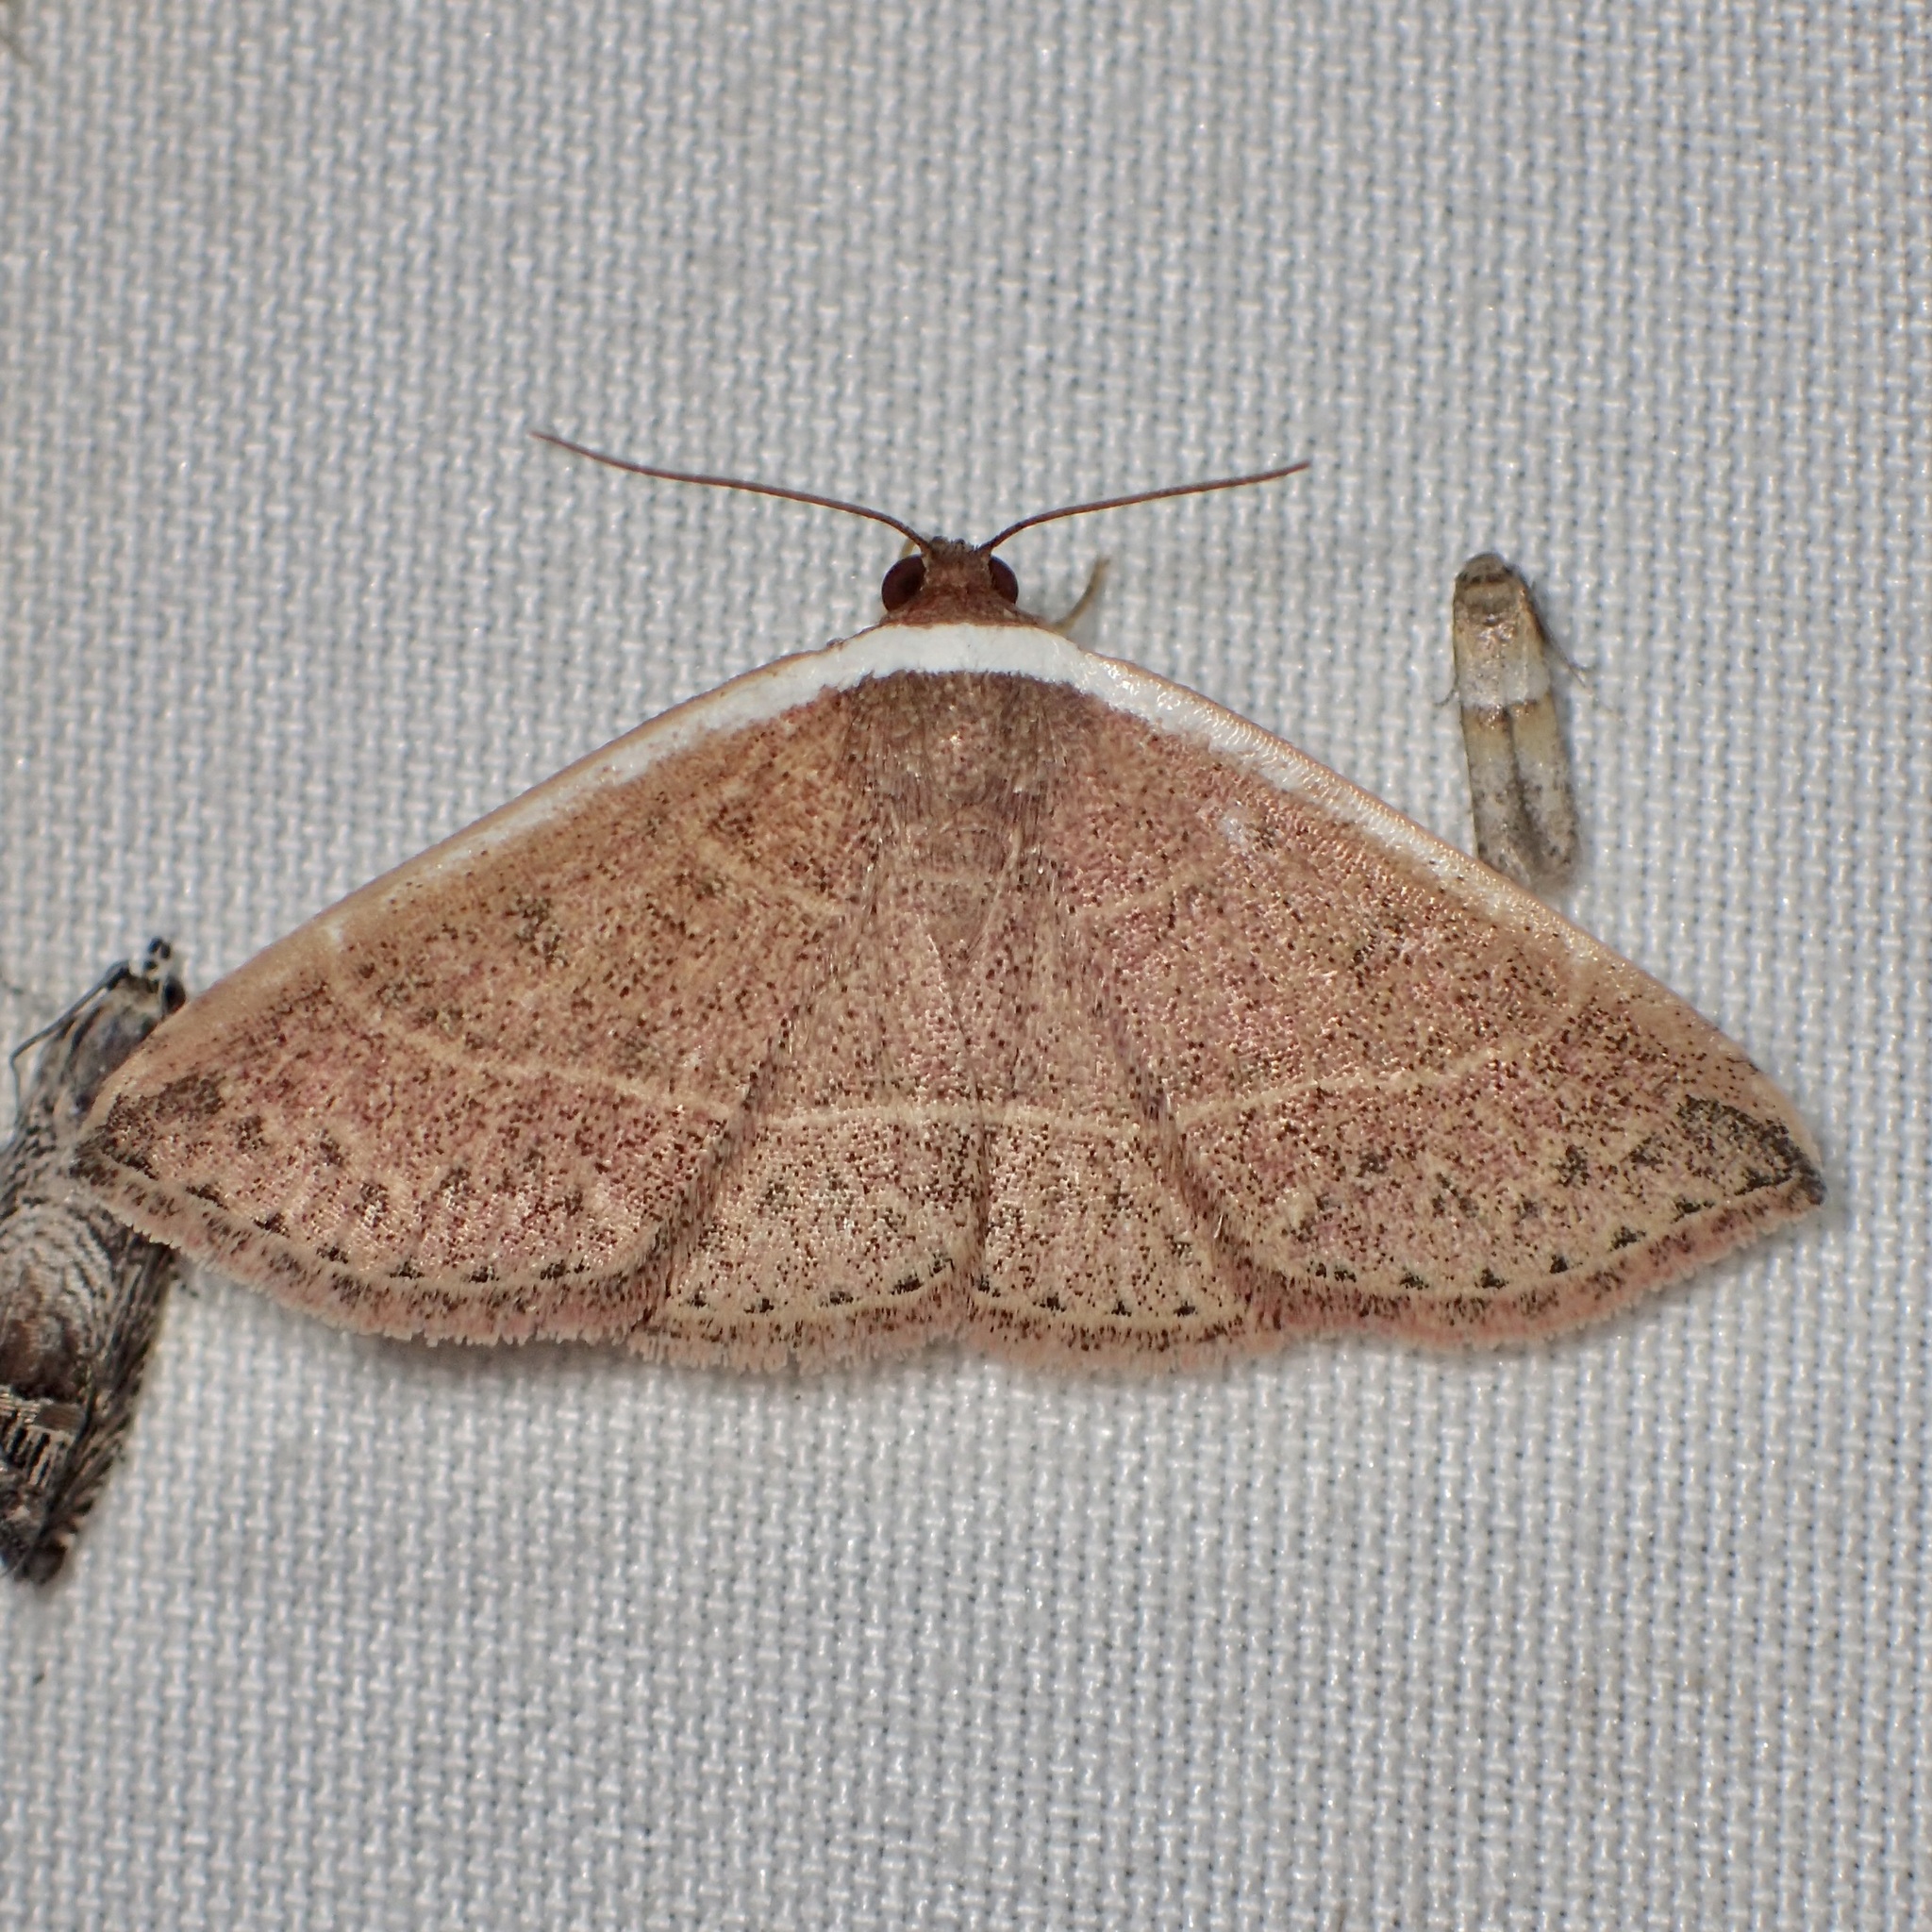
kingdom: Animalia
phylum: Arthropoda
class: Insecta
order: Lepidoptera
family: Noctuidae
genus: Oruza
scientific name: Oruza albocostata
